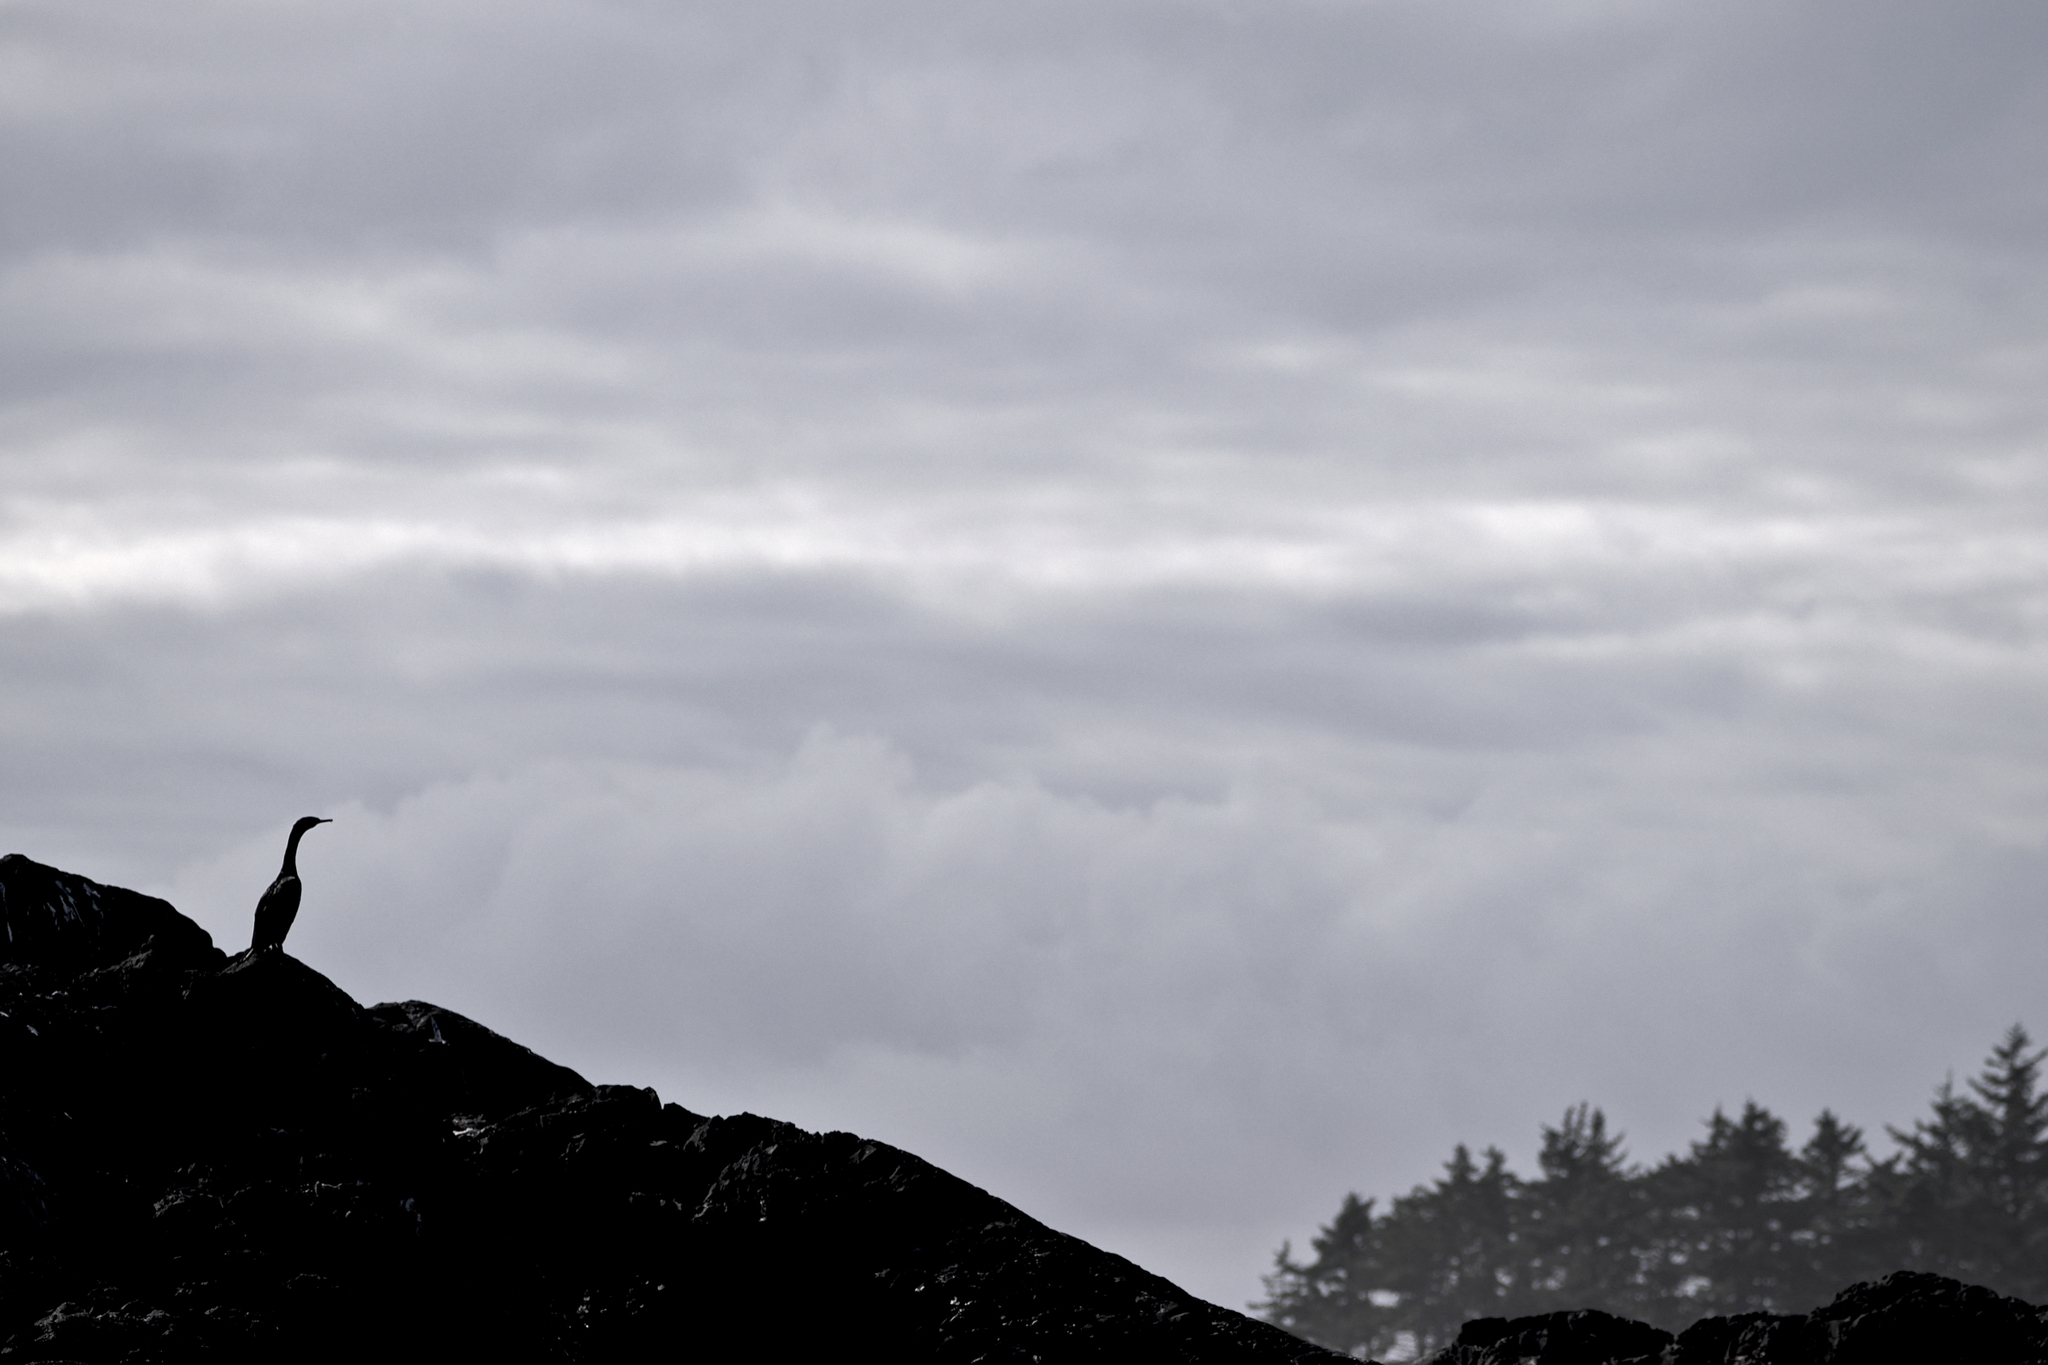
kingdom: Animalia
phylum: Chordata
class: Aves
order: Suliformes
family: Phalacrocoracidae
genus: Phalacrocorax
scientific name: Phalacrocorax pelagicus
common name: Pelagic cormorant
